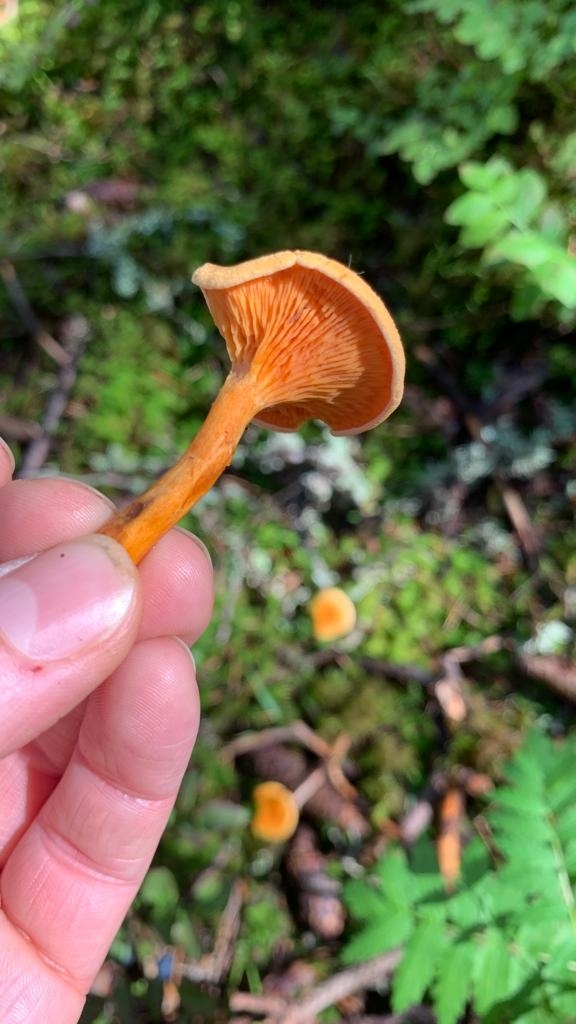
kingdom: Fungi
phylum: Basidiomycota
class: Agaricomycetes
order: Boletales
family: Hygrophoropsidaceae
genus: Hygrophoropsis
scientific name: Hygrophoropsis aurantiaca
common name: False chanterelle
